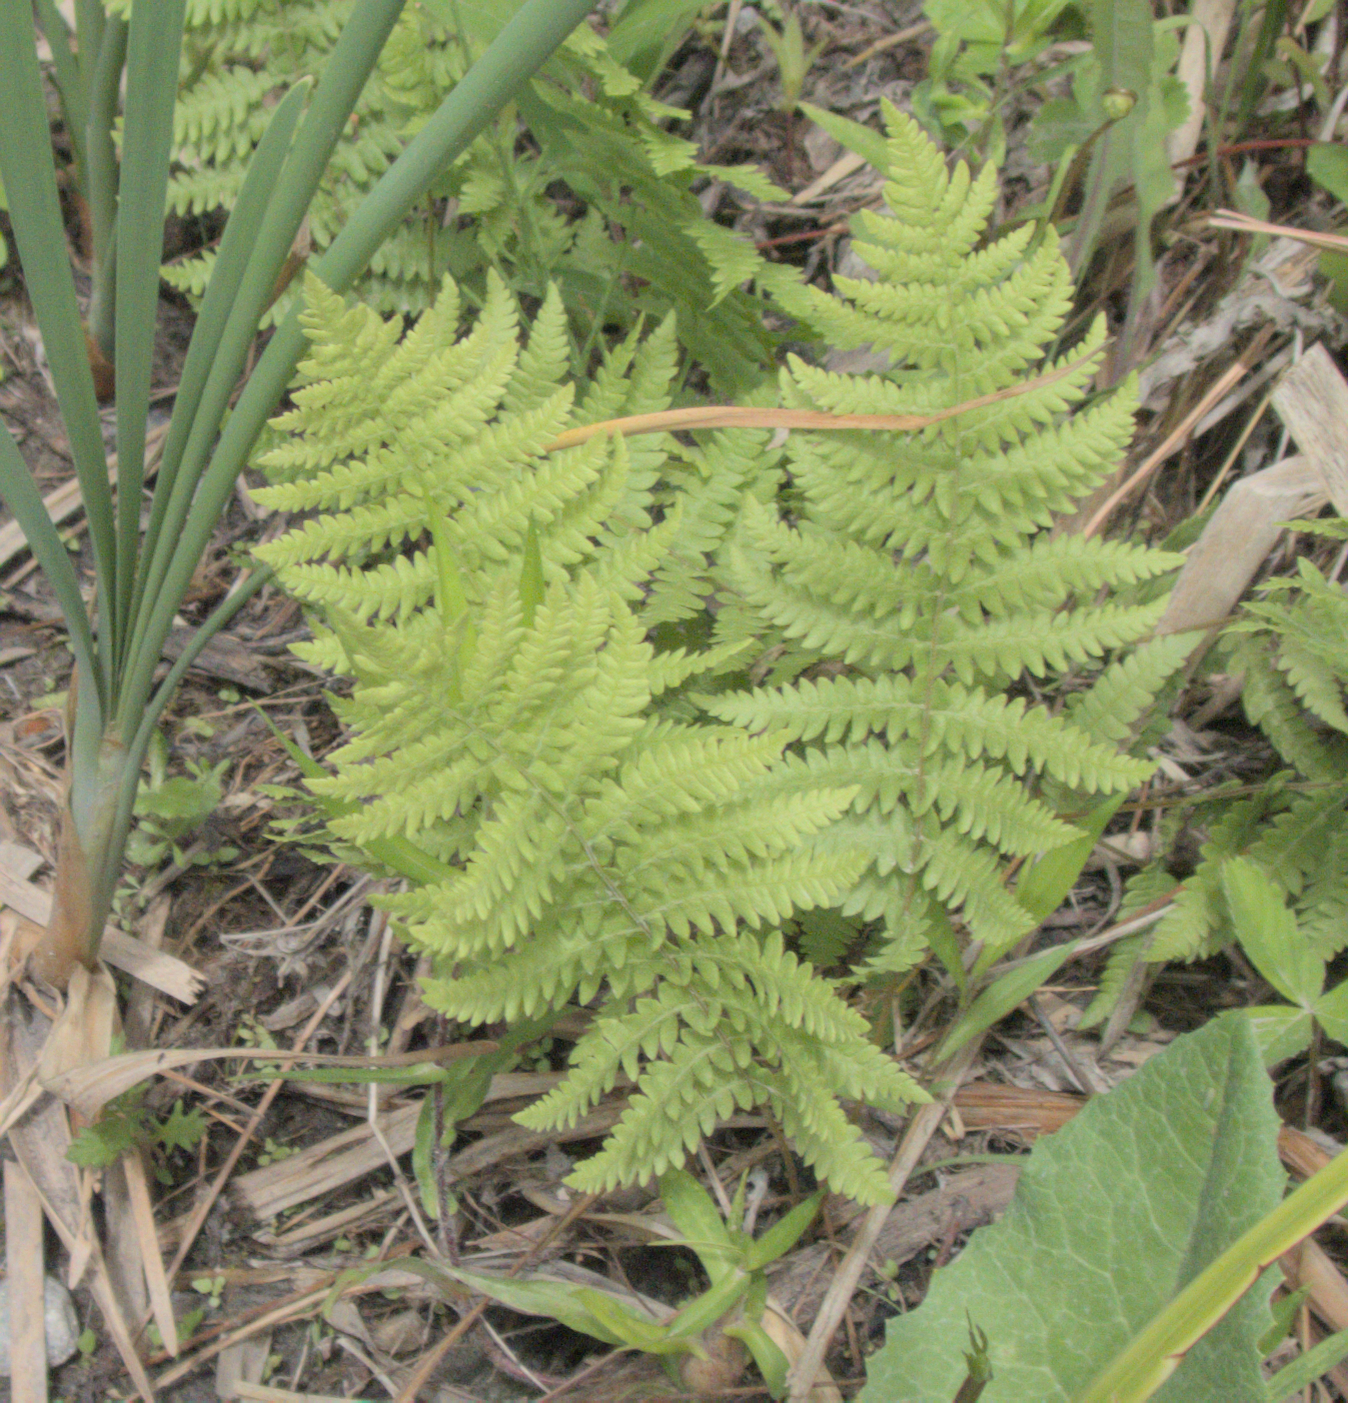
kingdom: Plantae
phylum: Tracheophyta
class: Polypodiopsida
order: Polypodiales
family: Thelypteridaceae
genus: Thelypteris
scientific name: Thelypteris palustris
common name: Marsh fern
